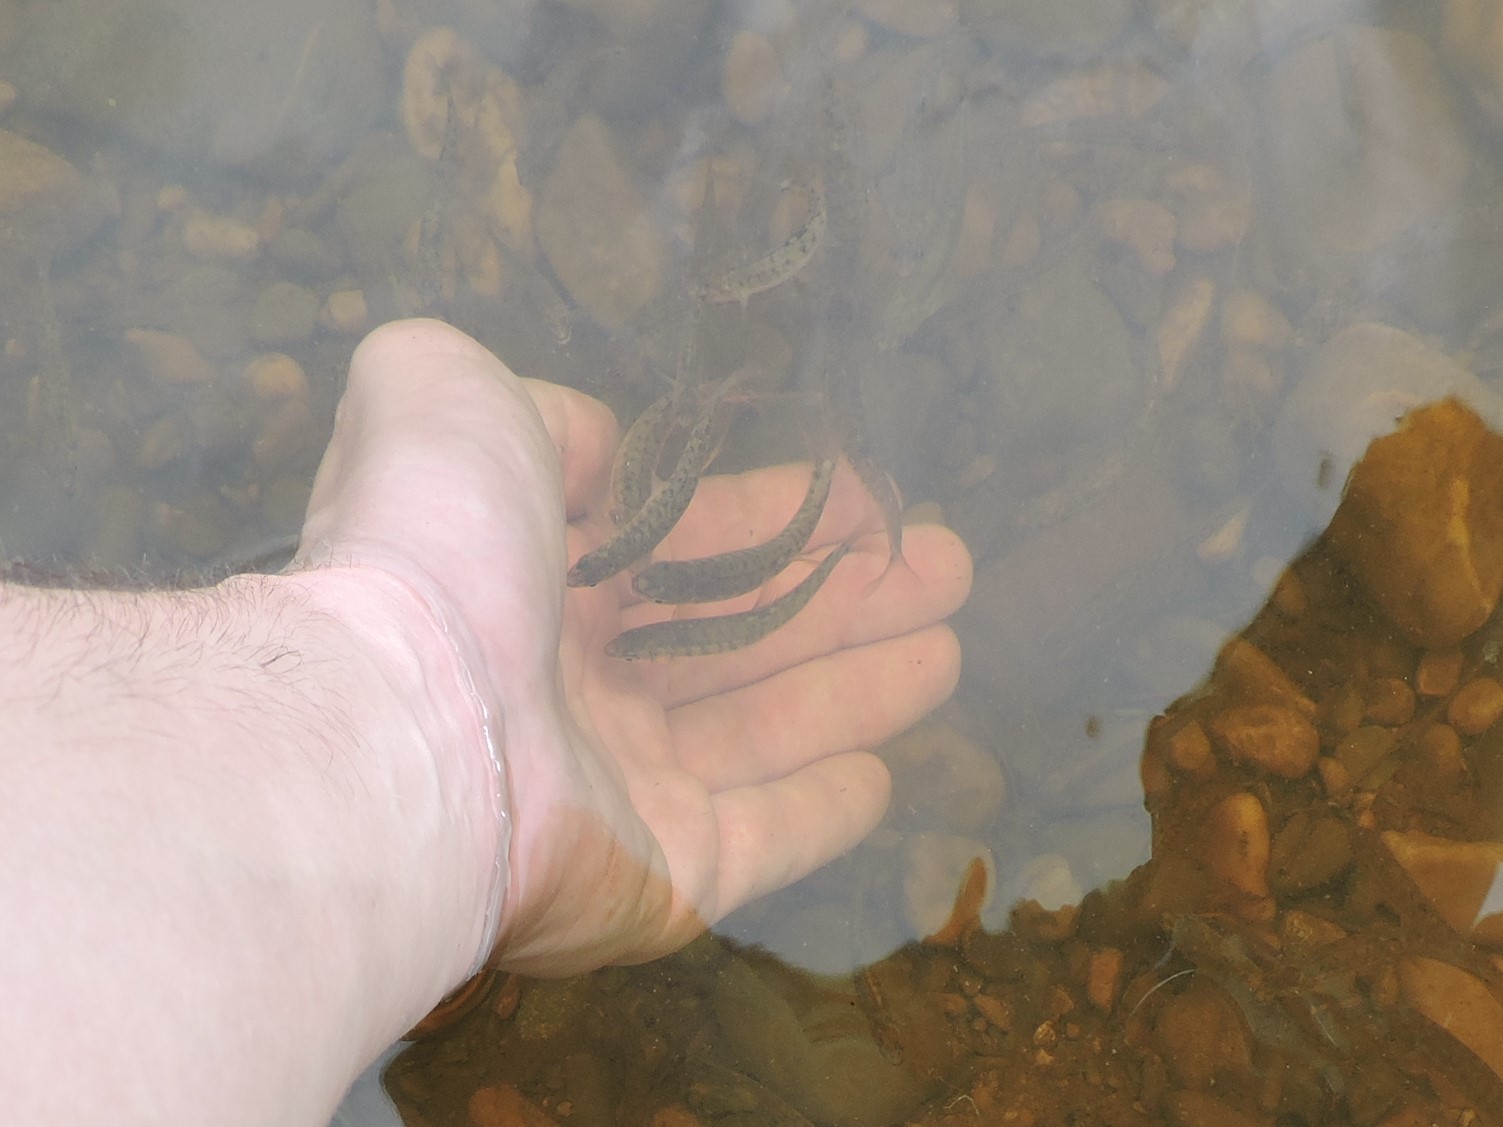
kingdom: Animalia
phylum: Chordata
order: Cypriniformes
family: Cyprinidae
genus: Phoxinus
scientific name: Phoxinus phoxinus
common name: Minnow
